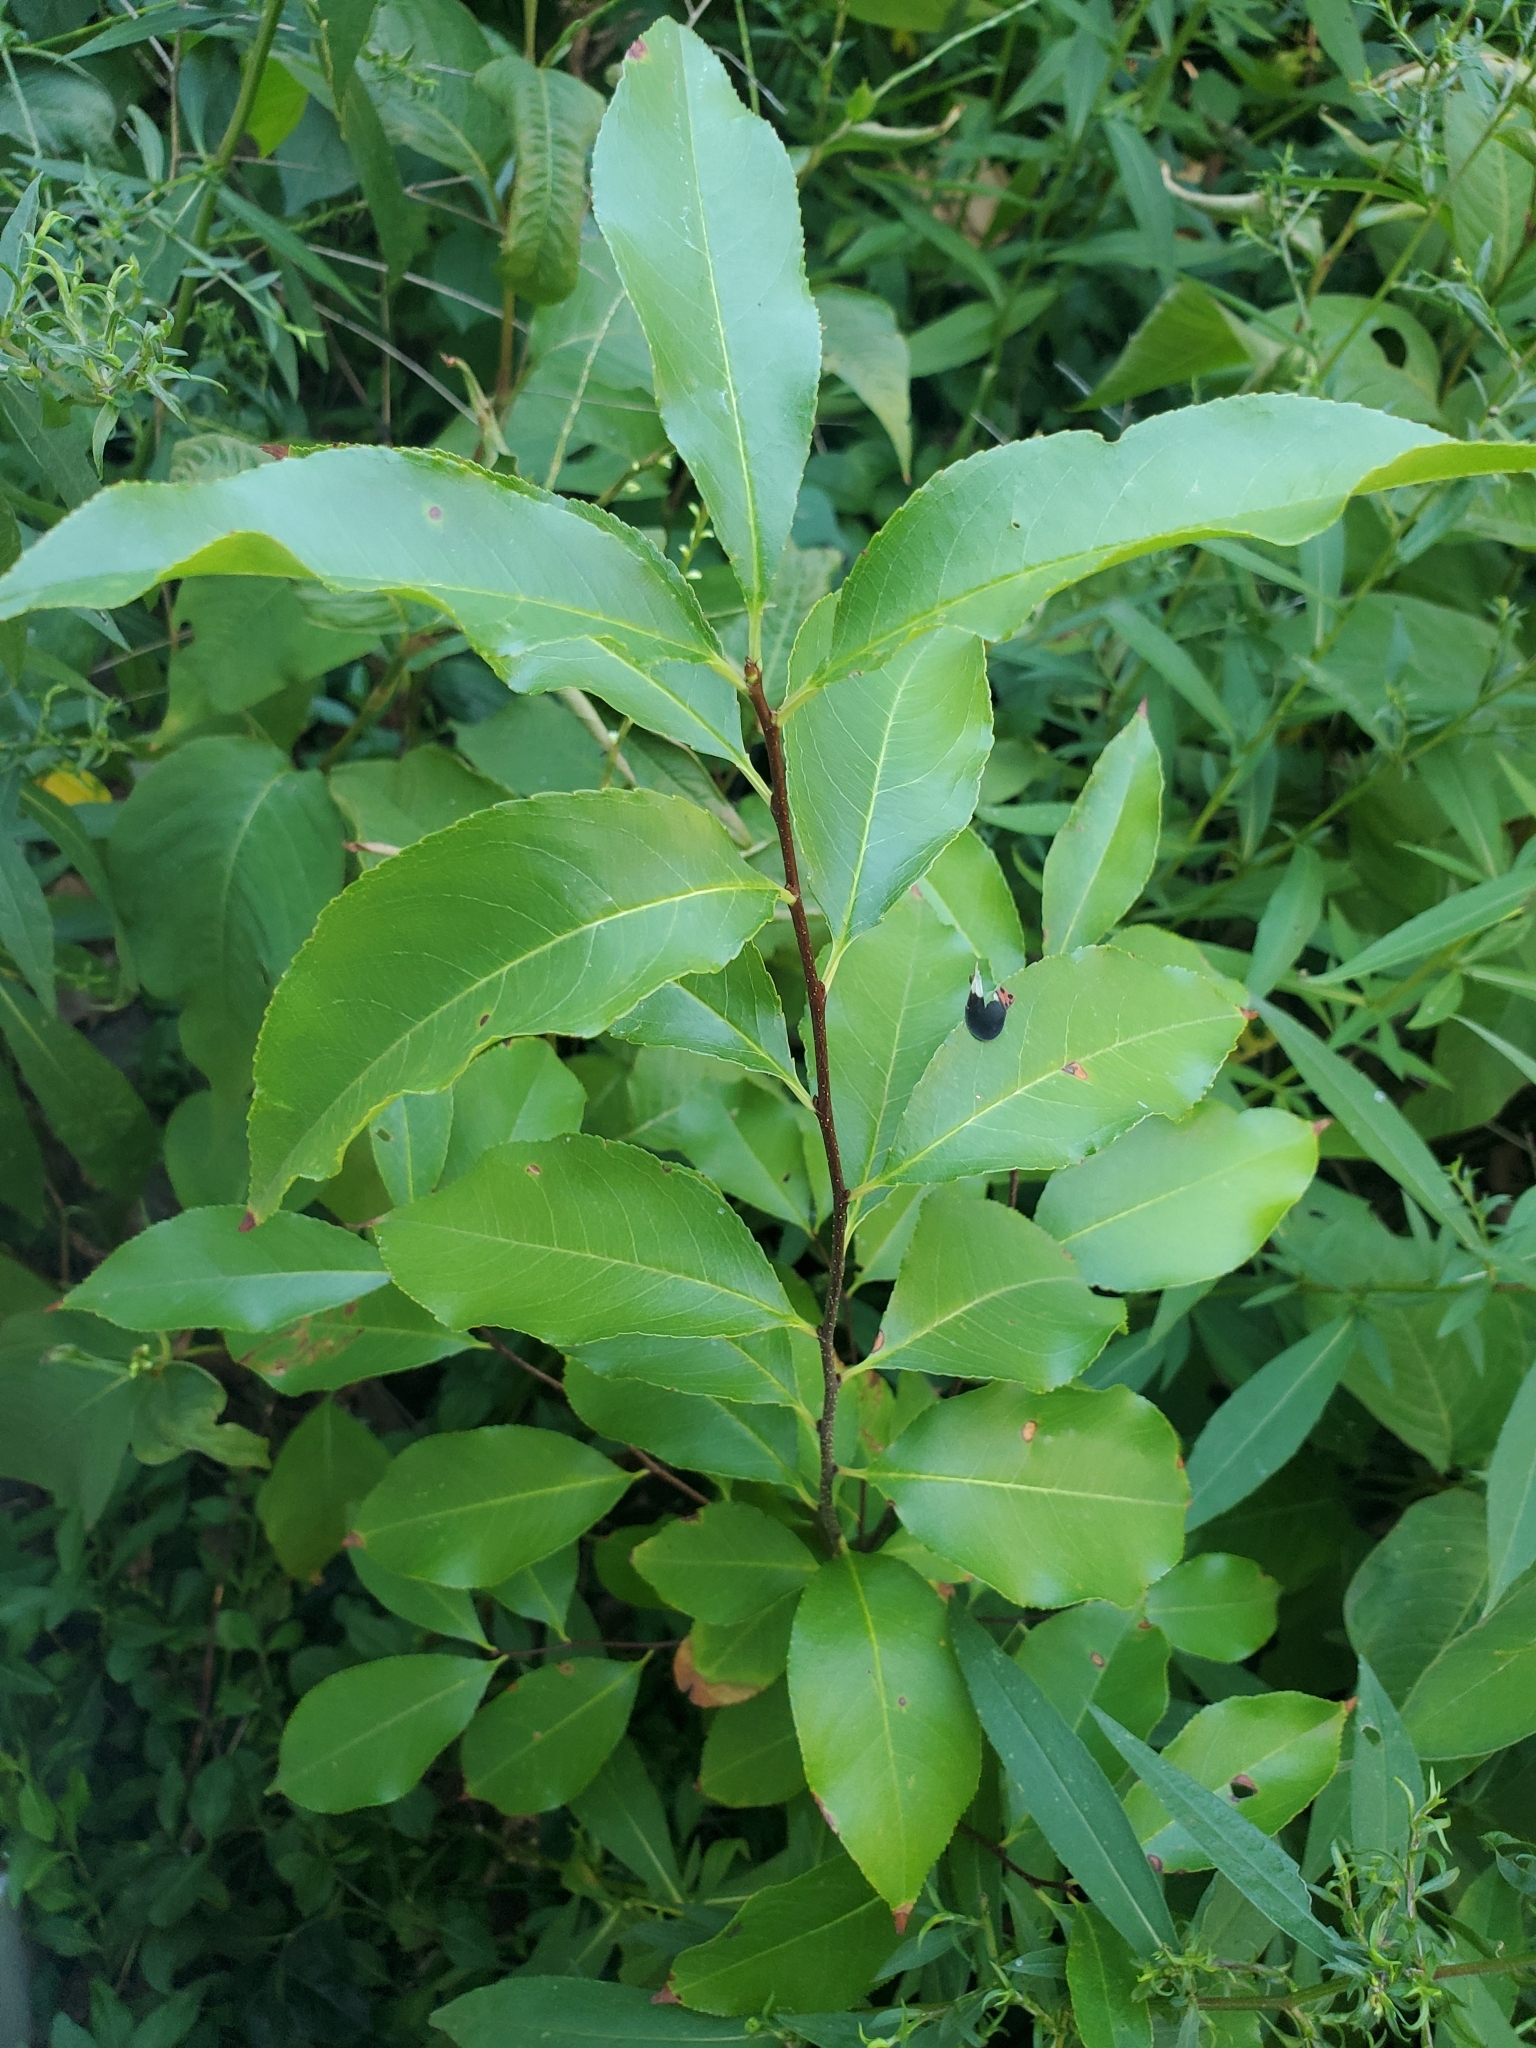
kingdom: Plantae
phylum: Tracheophyta
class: Magnoliopsida
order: Rosales
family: Rosaceae
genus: Prunus
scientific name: Prunus serotina
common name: Black cherry
